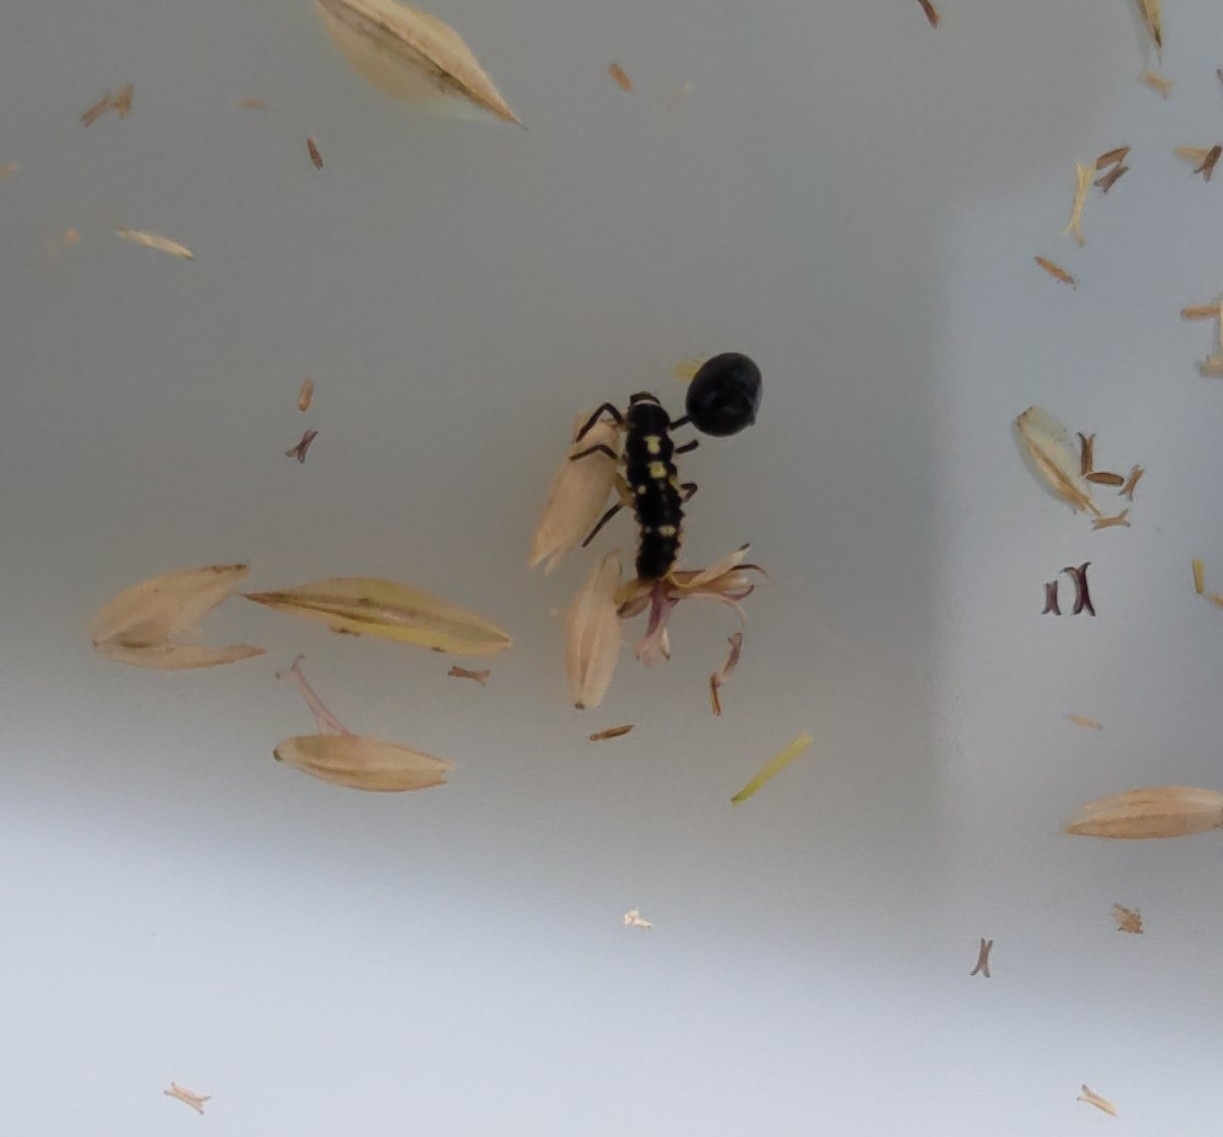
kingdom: Animalia
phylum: Arthropoda
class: Insecta
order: Coleoptera
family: Coccinellidae
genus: Propylaea
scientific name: Propylaea quatuordecimpunctata
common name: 14-spotted ladybird beetle
